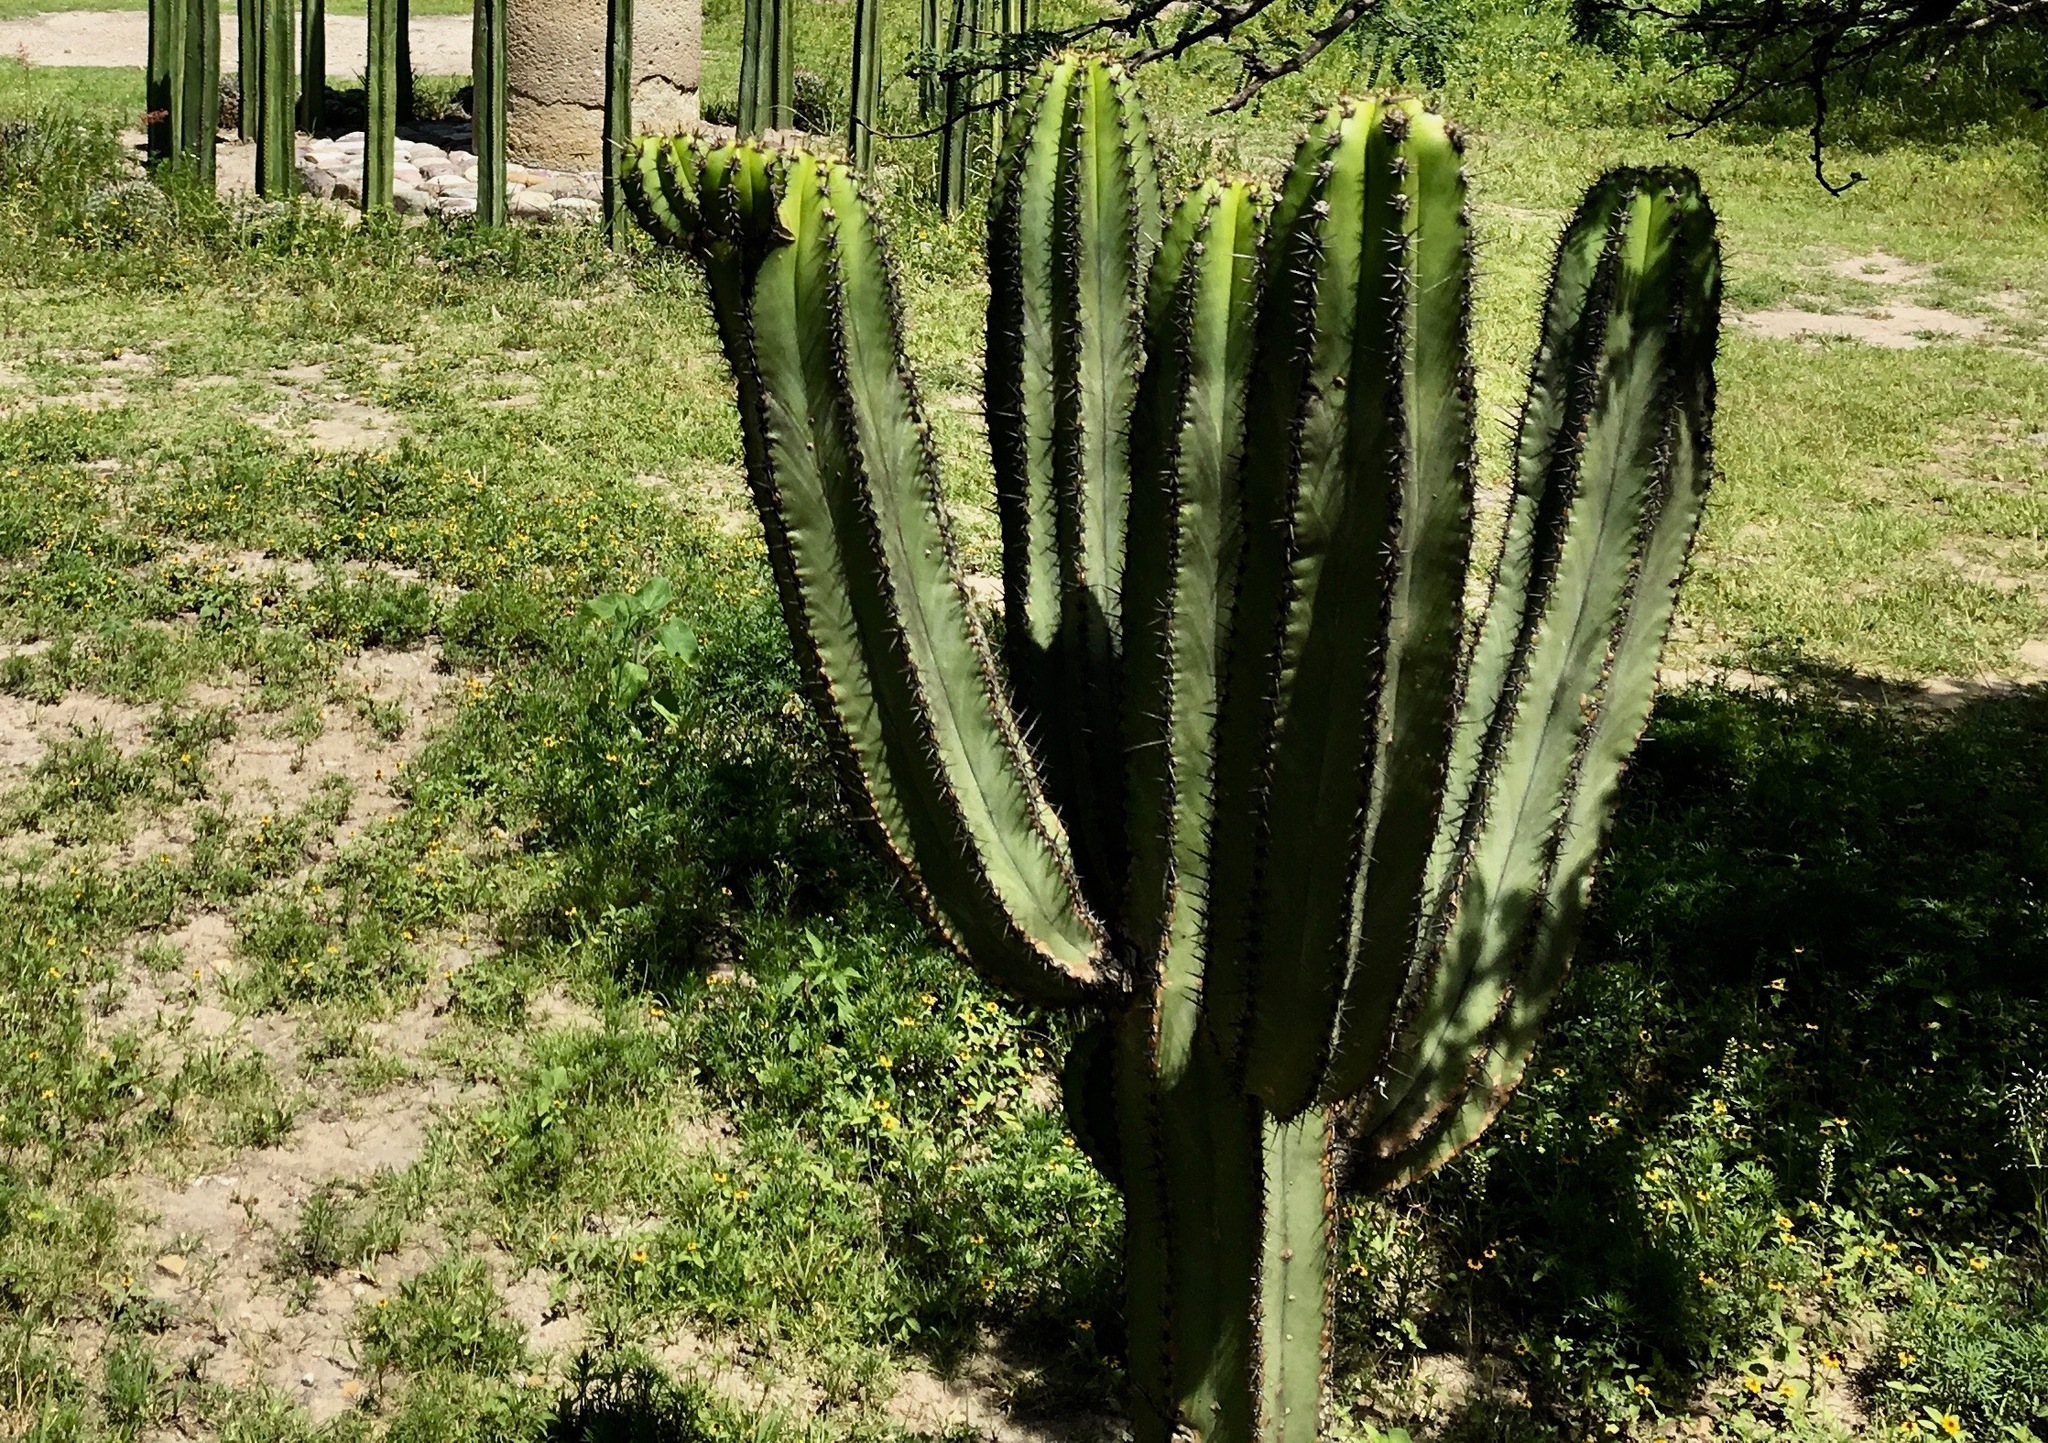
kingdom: Plantae
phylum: Tracheophyta
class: Magnoliopsida
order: Caryophyllales
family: Cactaceae
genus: Myrtillocactus
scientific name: Myrtillocactus schenckii
